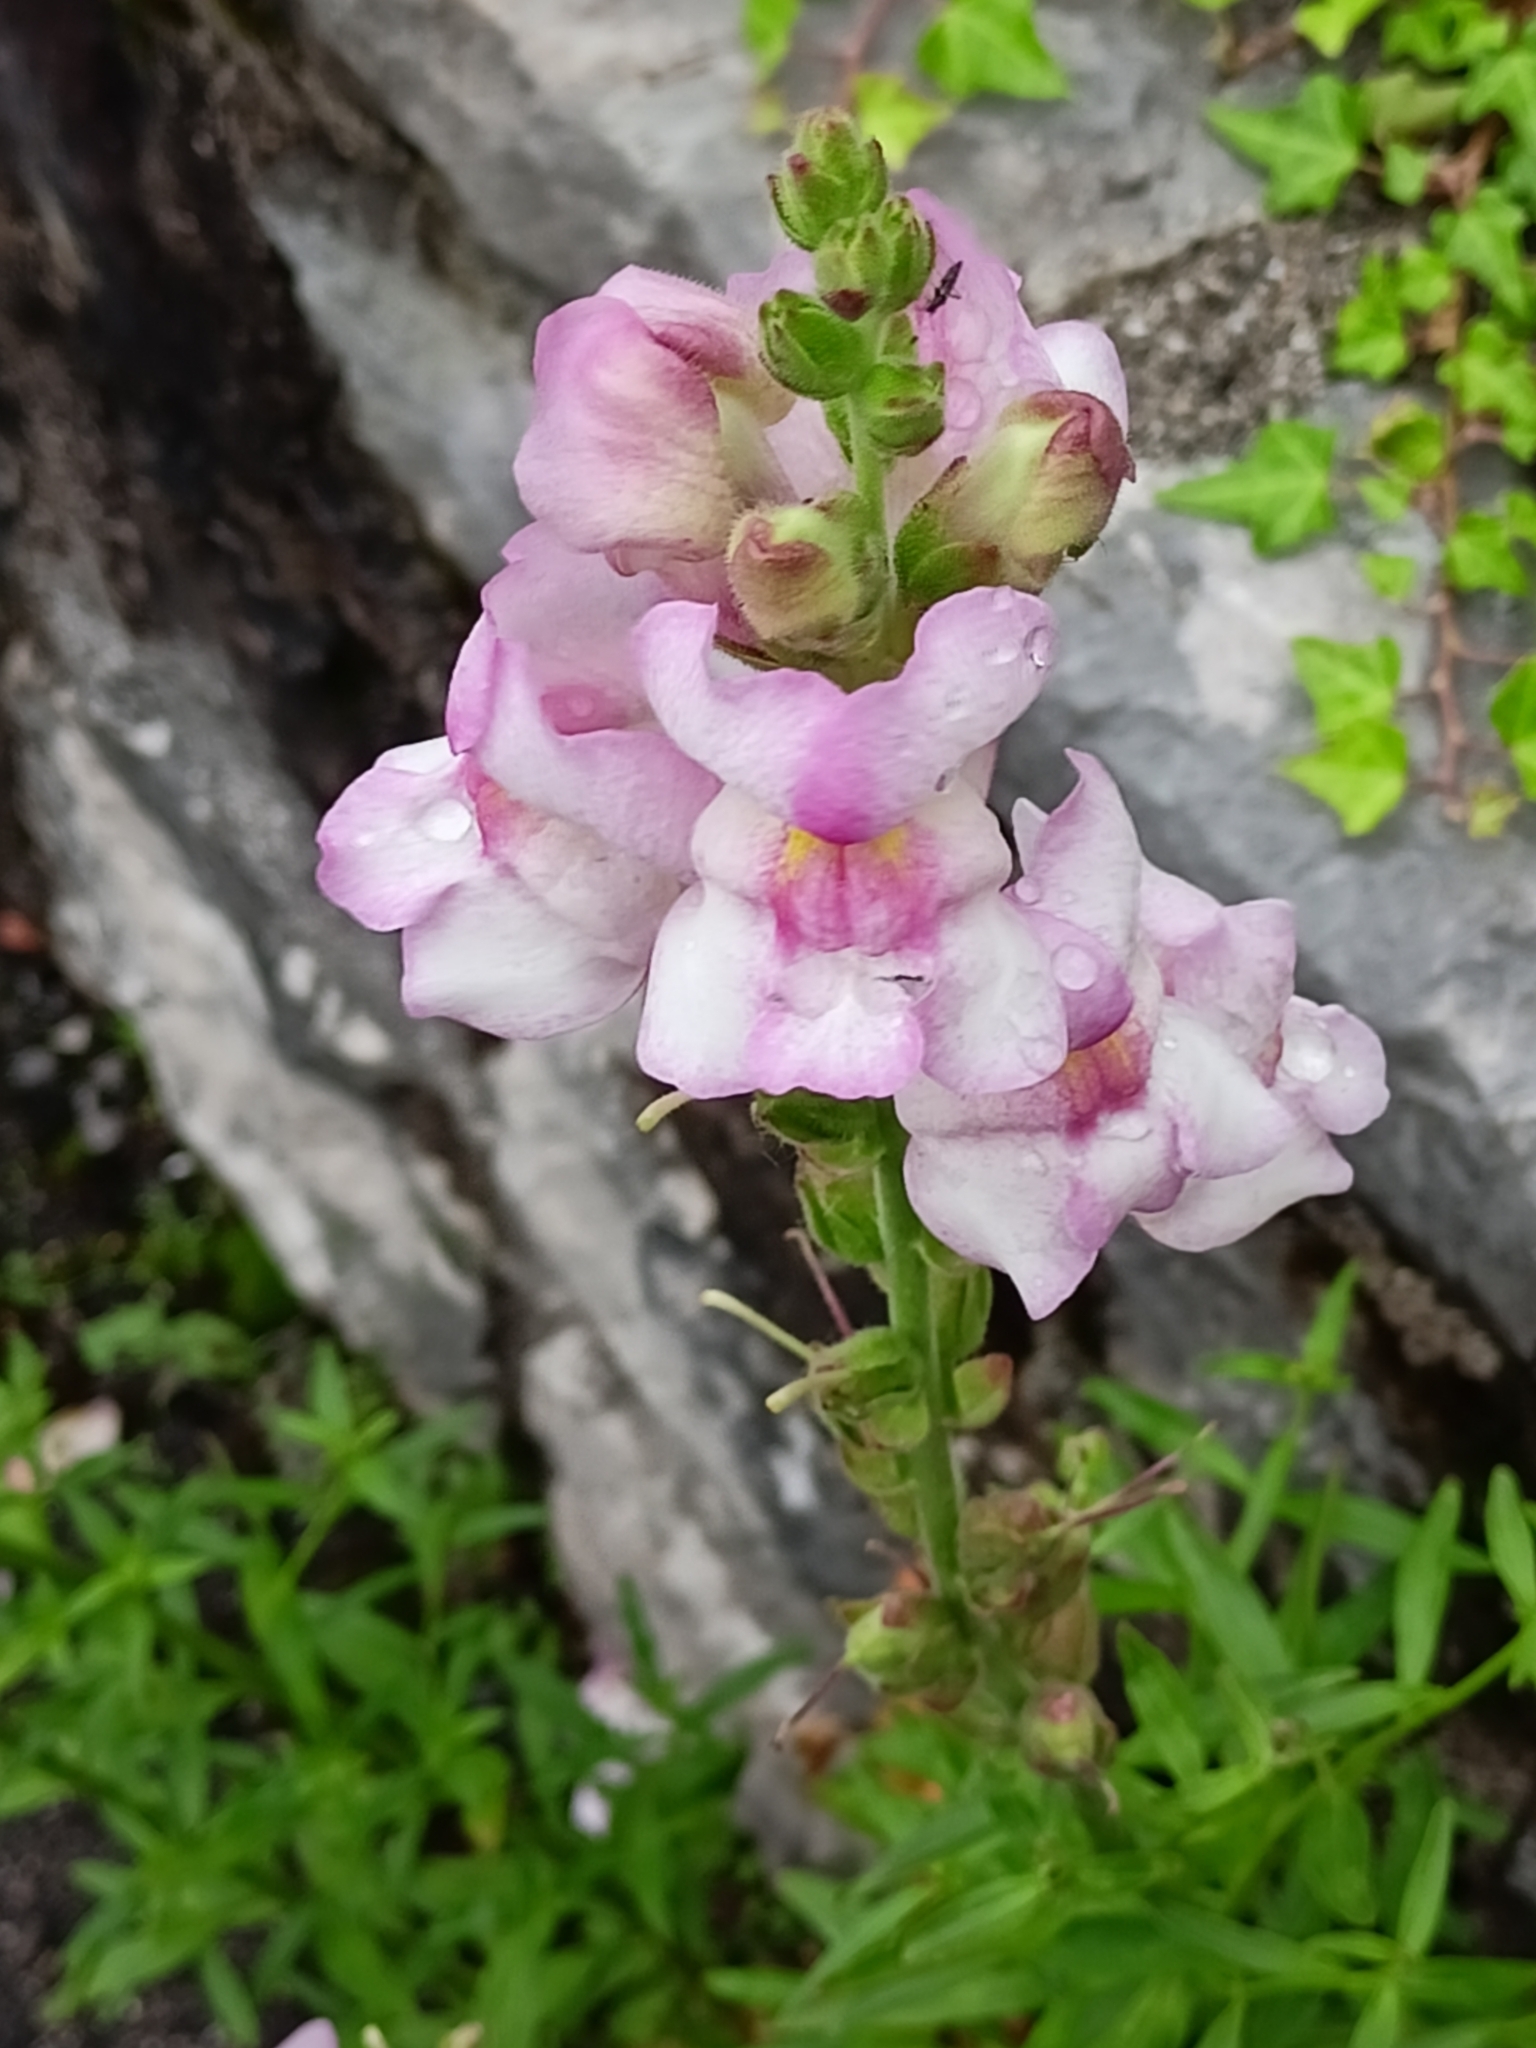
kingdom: Plantae
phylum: Tracheophyta
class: Magnoliopsida
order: Lamiales
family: Plantaginaceae
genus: Antirrhinum
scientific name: Antirrhinum majus
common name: Snapdragon
